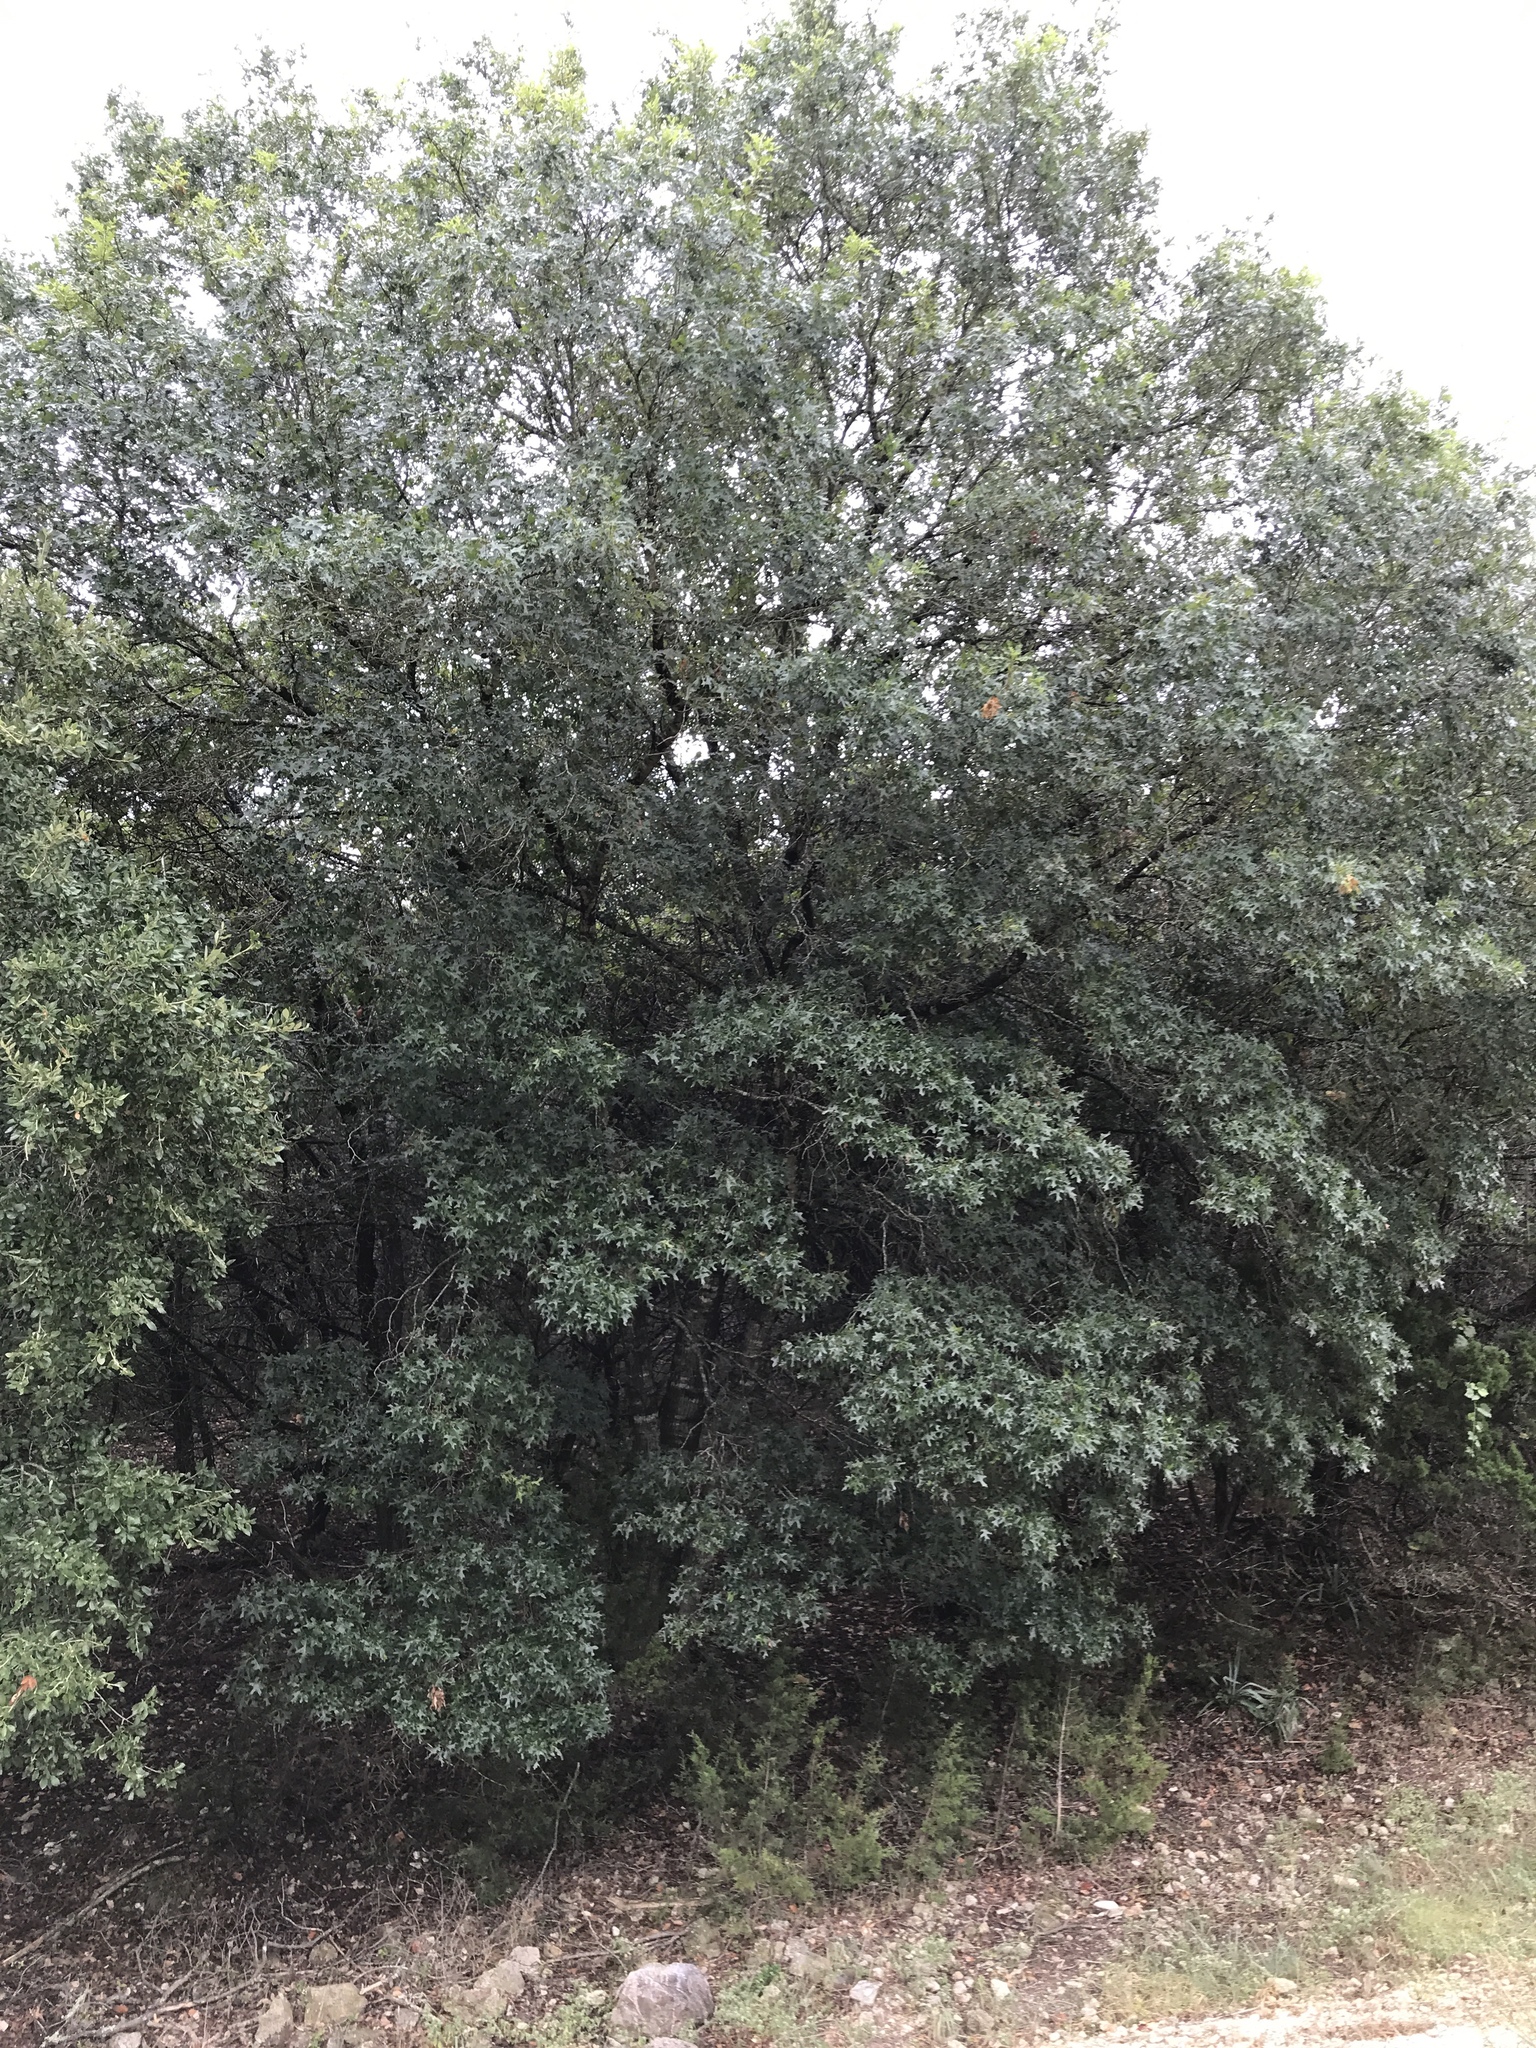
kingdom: Plantae
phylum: Tracheophyta
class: Magnoliopsida
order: Fagales
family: Fagaceae
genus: Quercus
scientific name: Quercus buckleyi
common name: Buckley oak
